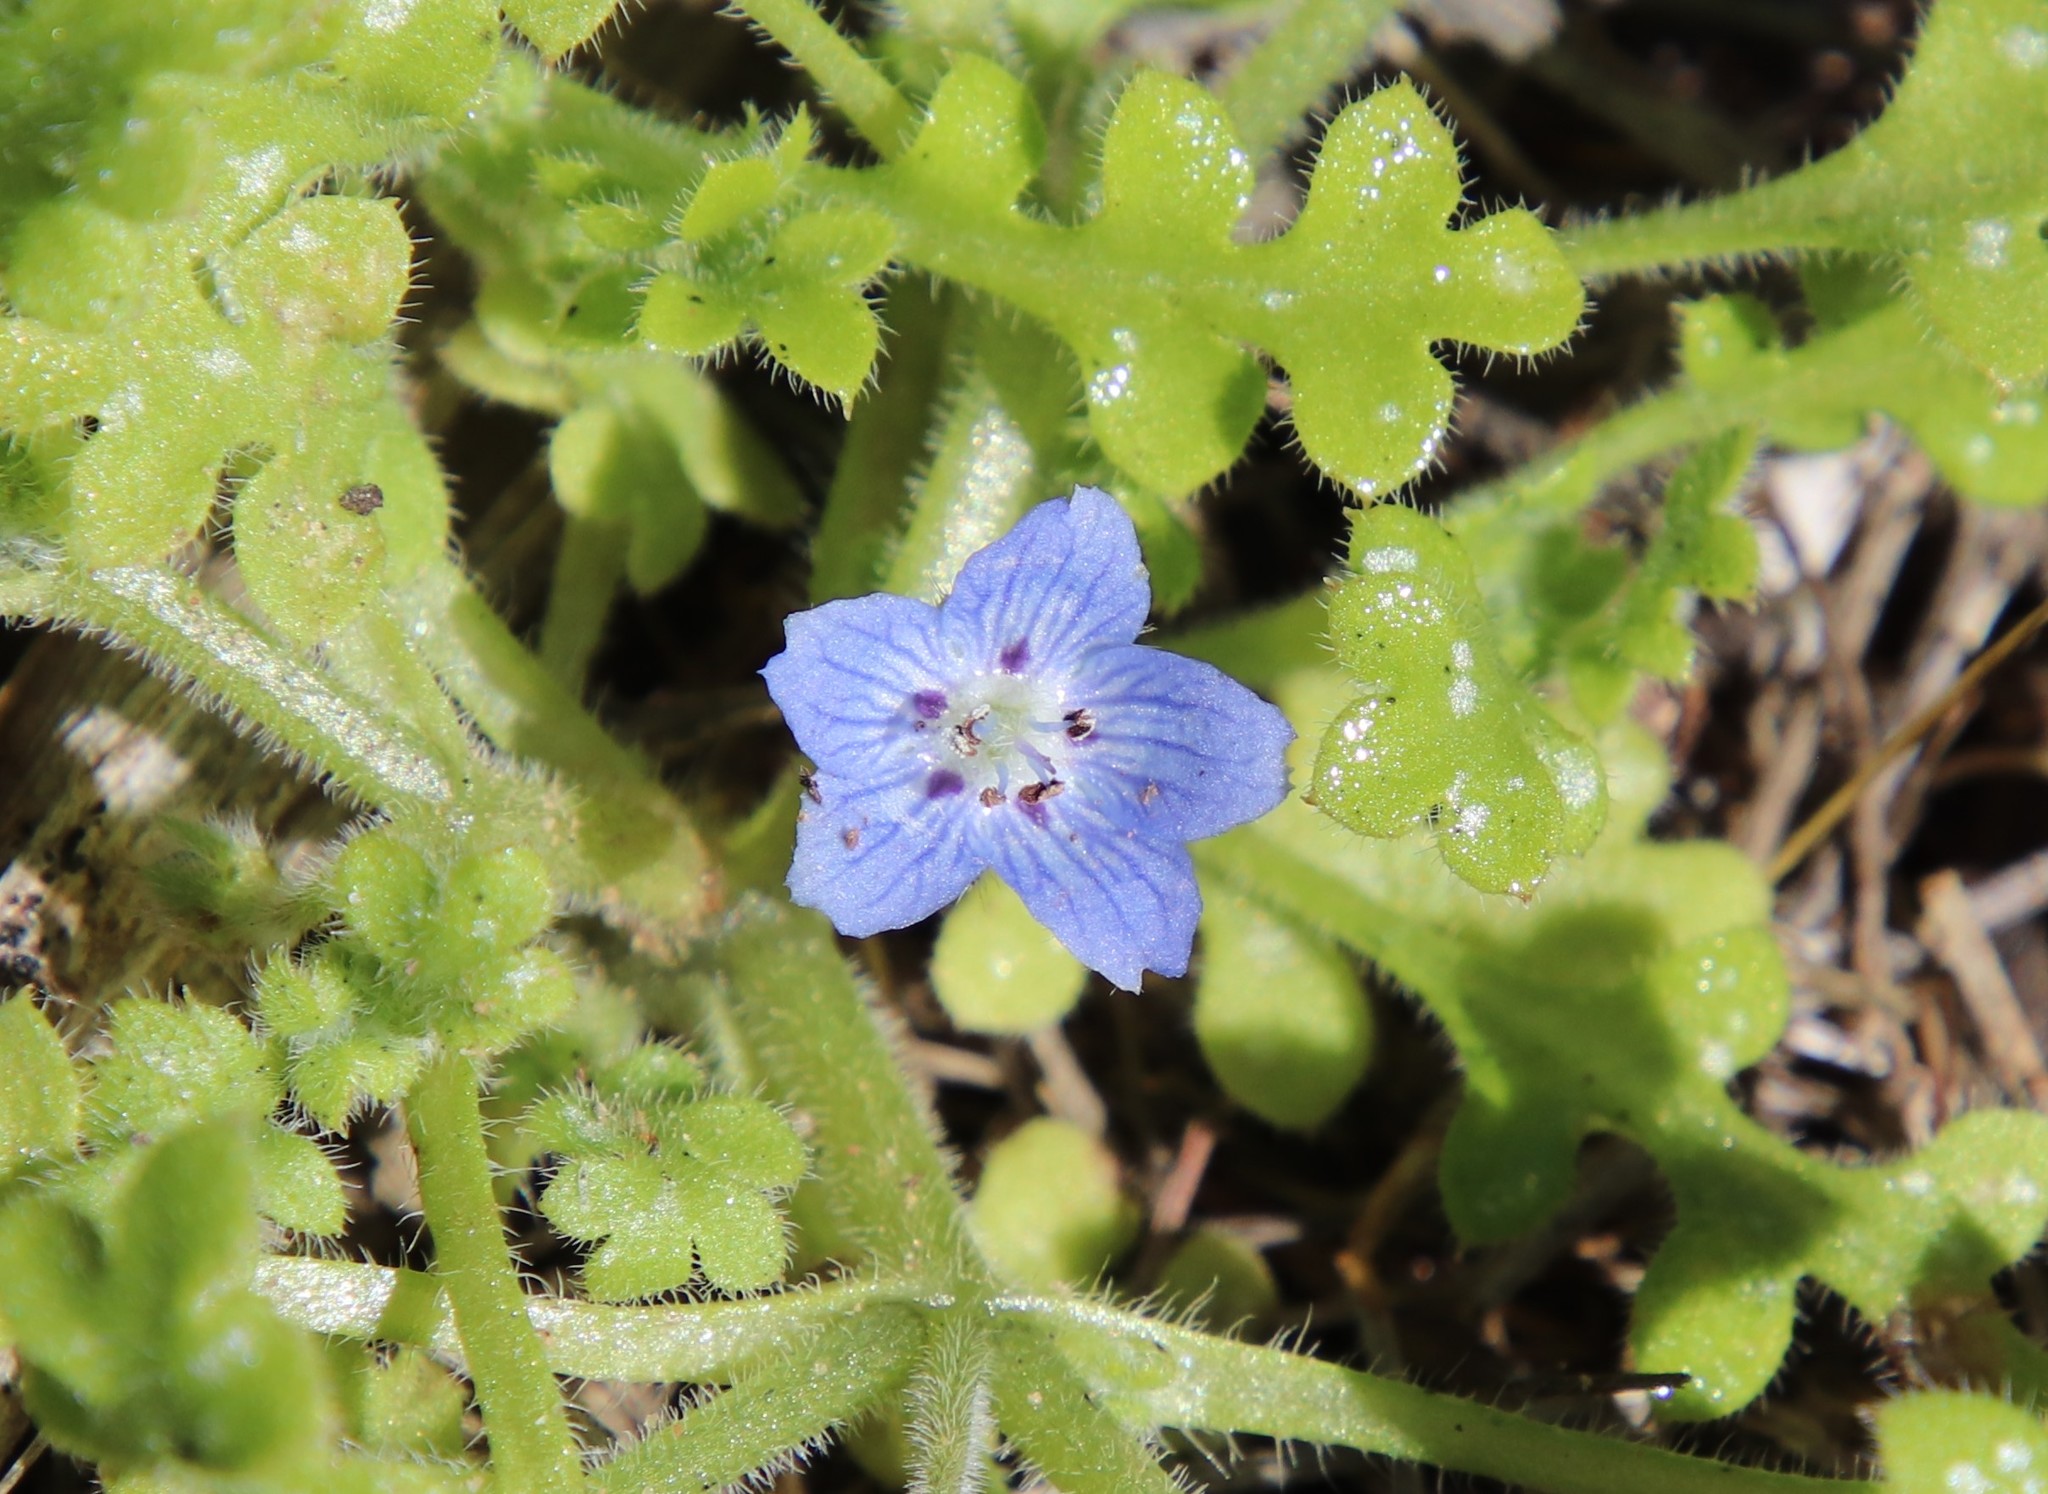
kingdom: Plantae
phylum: Tracheophyta
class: Magnoliopsida
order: Boraginales
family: Hydrophyllaceae
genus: Nemophila
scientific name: Nemophila menziesii
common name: Baby's-blue-eyes
